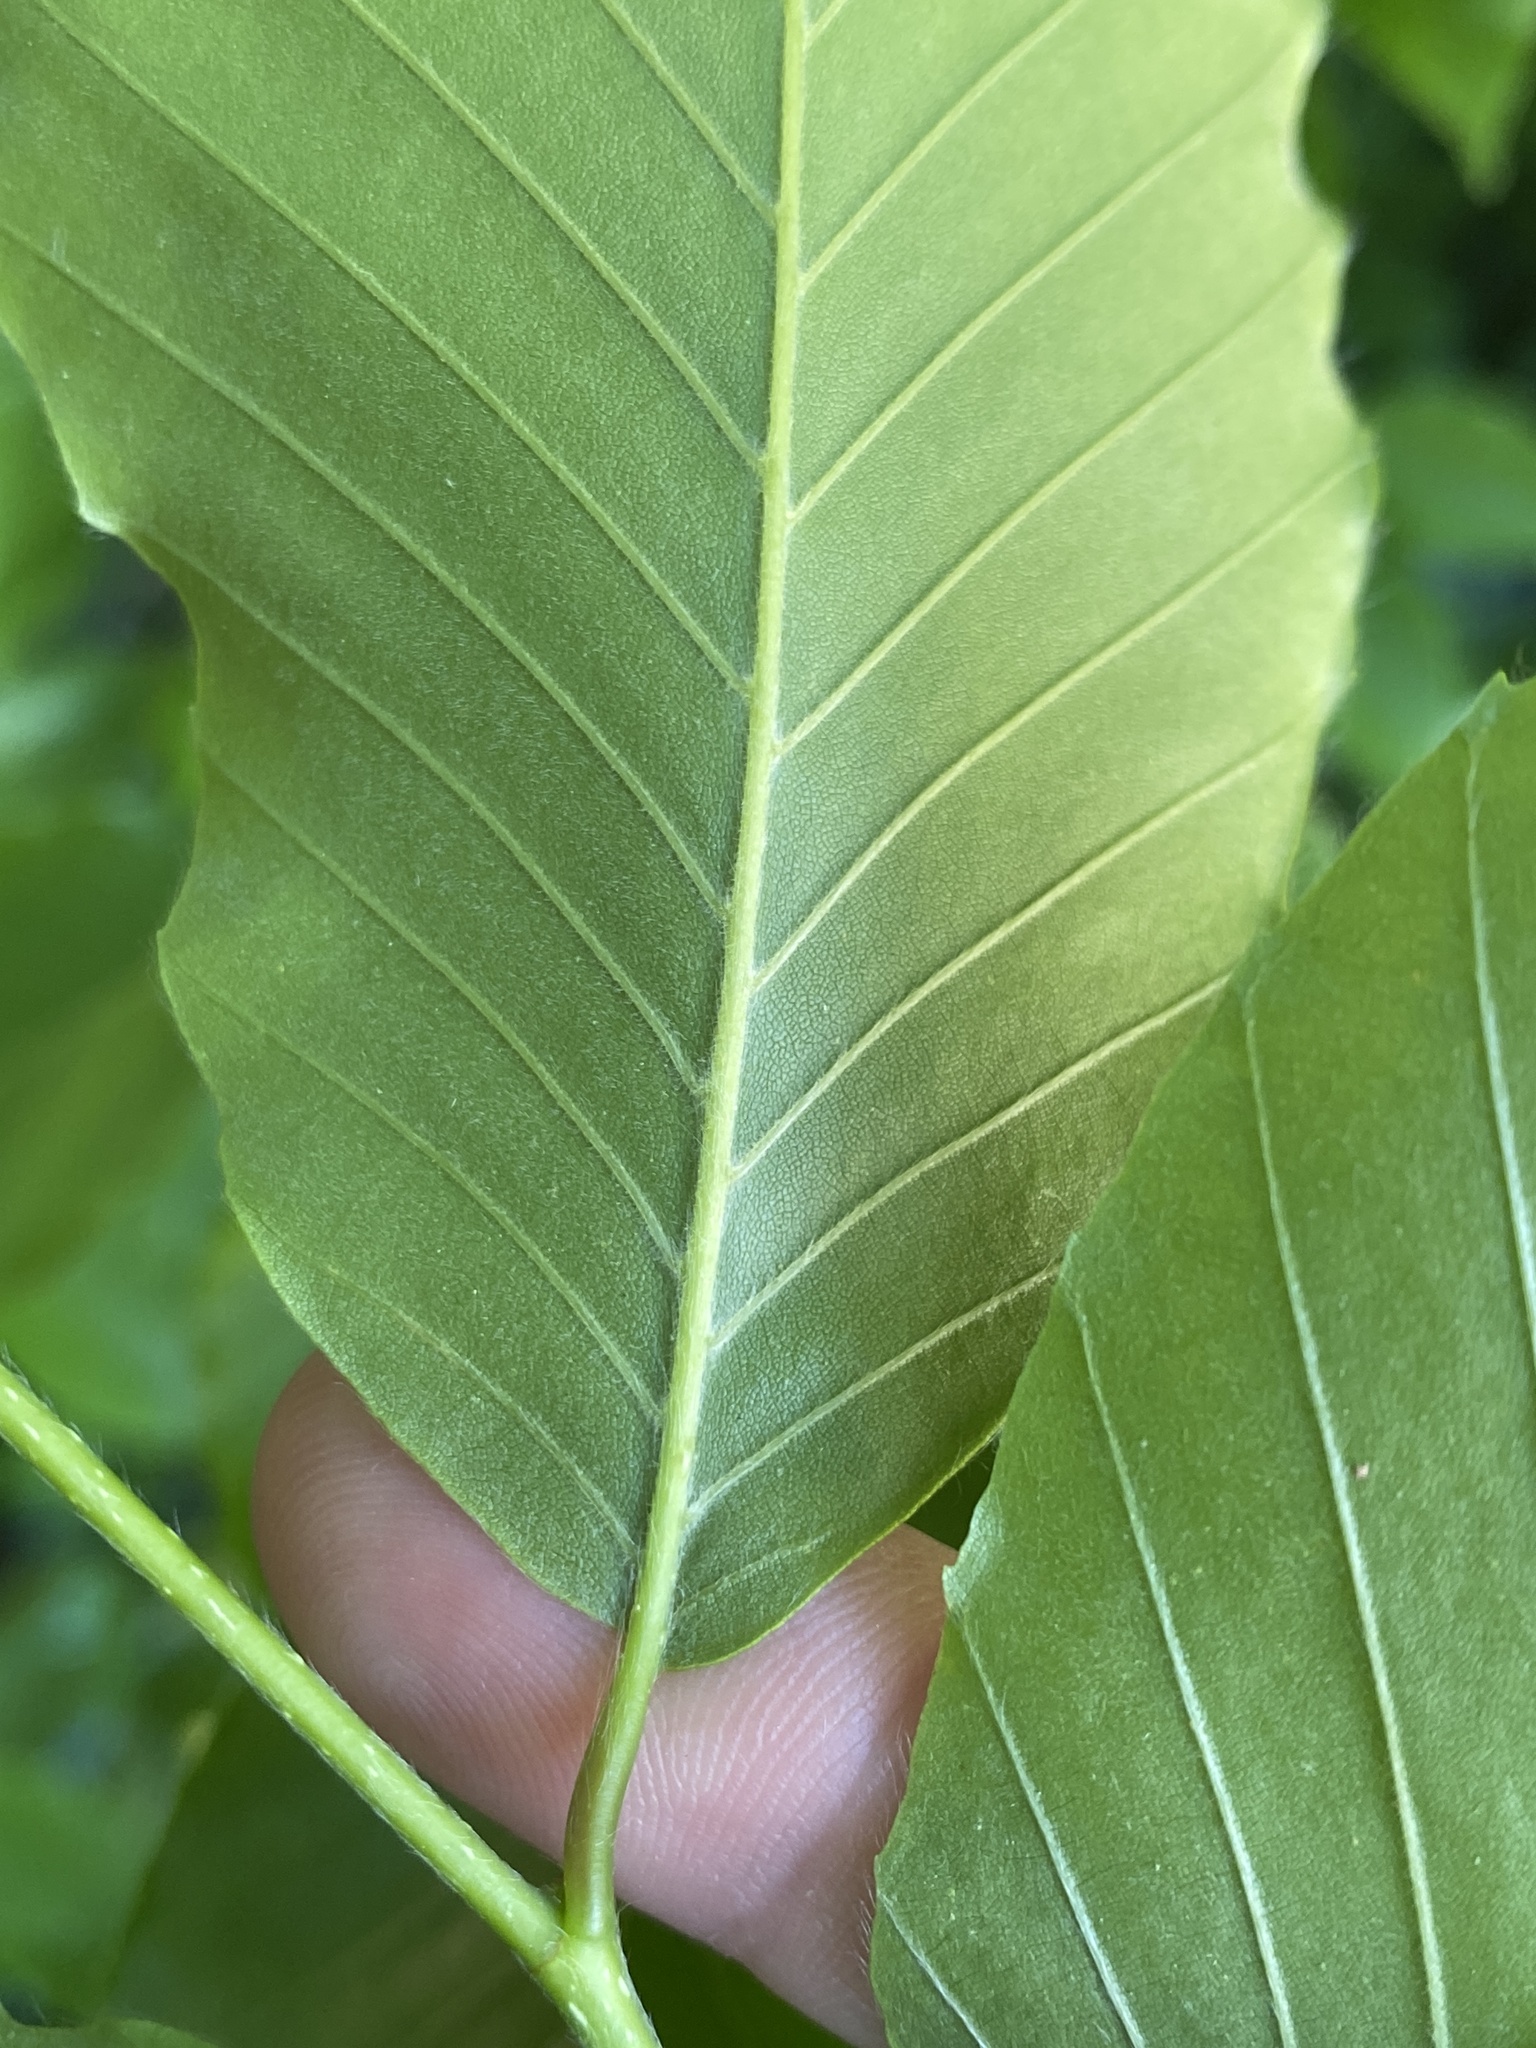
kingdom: Plantae
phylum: Tracheophyta
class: Magnoliopsida
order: Fagales
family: Fagaceae
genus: Fagus
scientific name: Fagus grandifolia
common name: American beech
